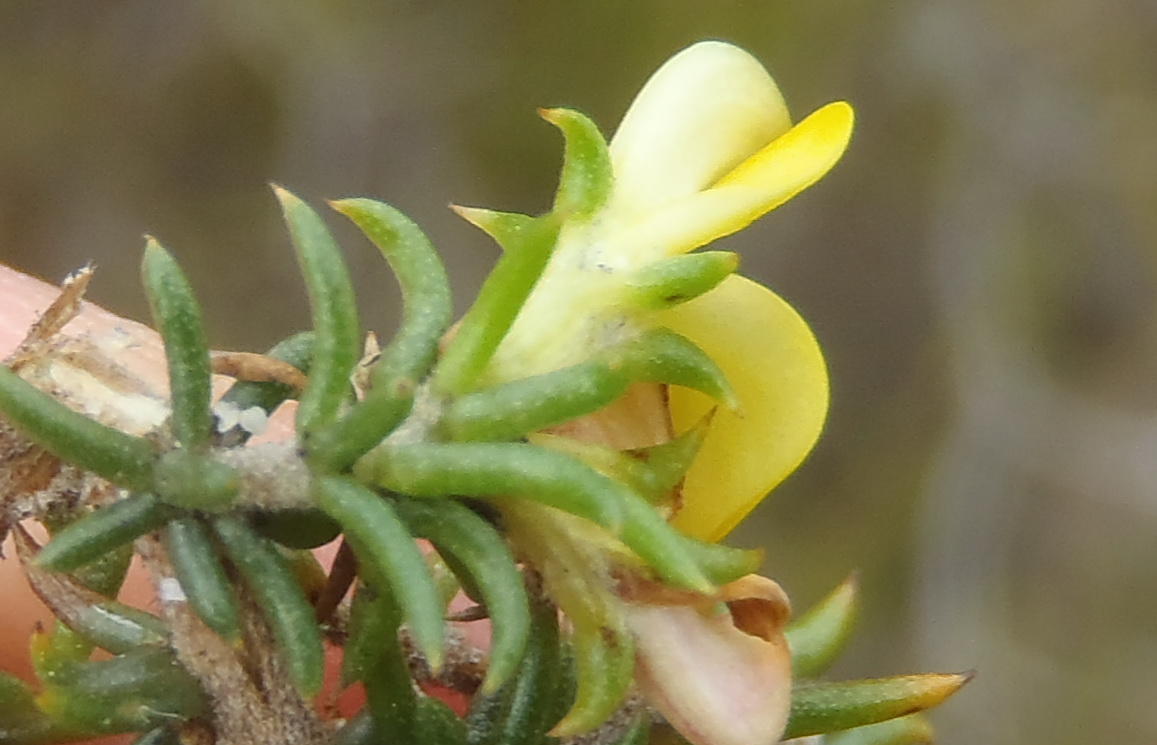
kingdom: Plantae
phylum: Tracheophyta
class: Magnoliopsida
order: Fabales
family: Fabaceae
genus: Aspalathus
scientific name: Aspalathus crassisepala
